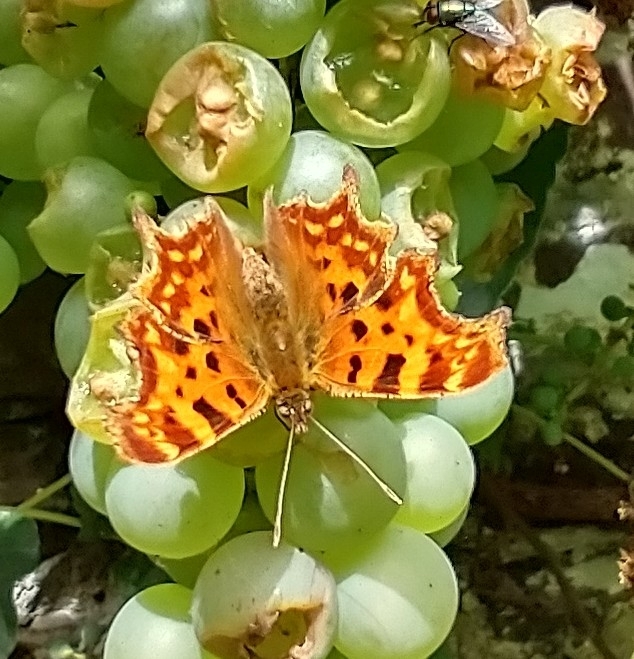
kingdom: Animalia
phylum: Arthropoda
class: Insecta
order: Lepidoptera
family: Nymphalidae
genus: Polygonia
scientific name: Polygonia c-album
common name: Comma
